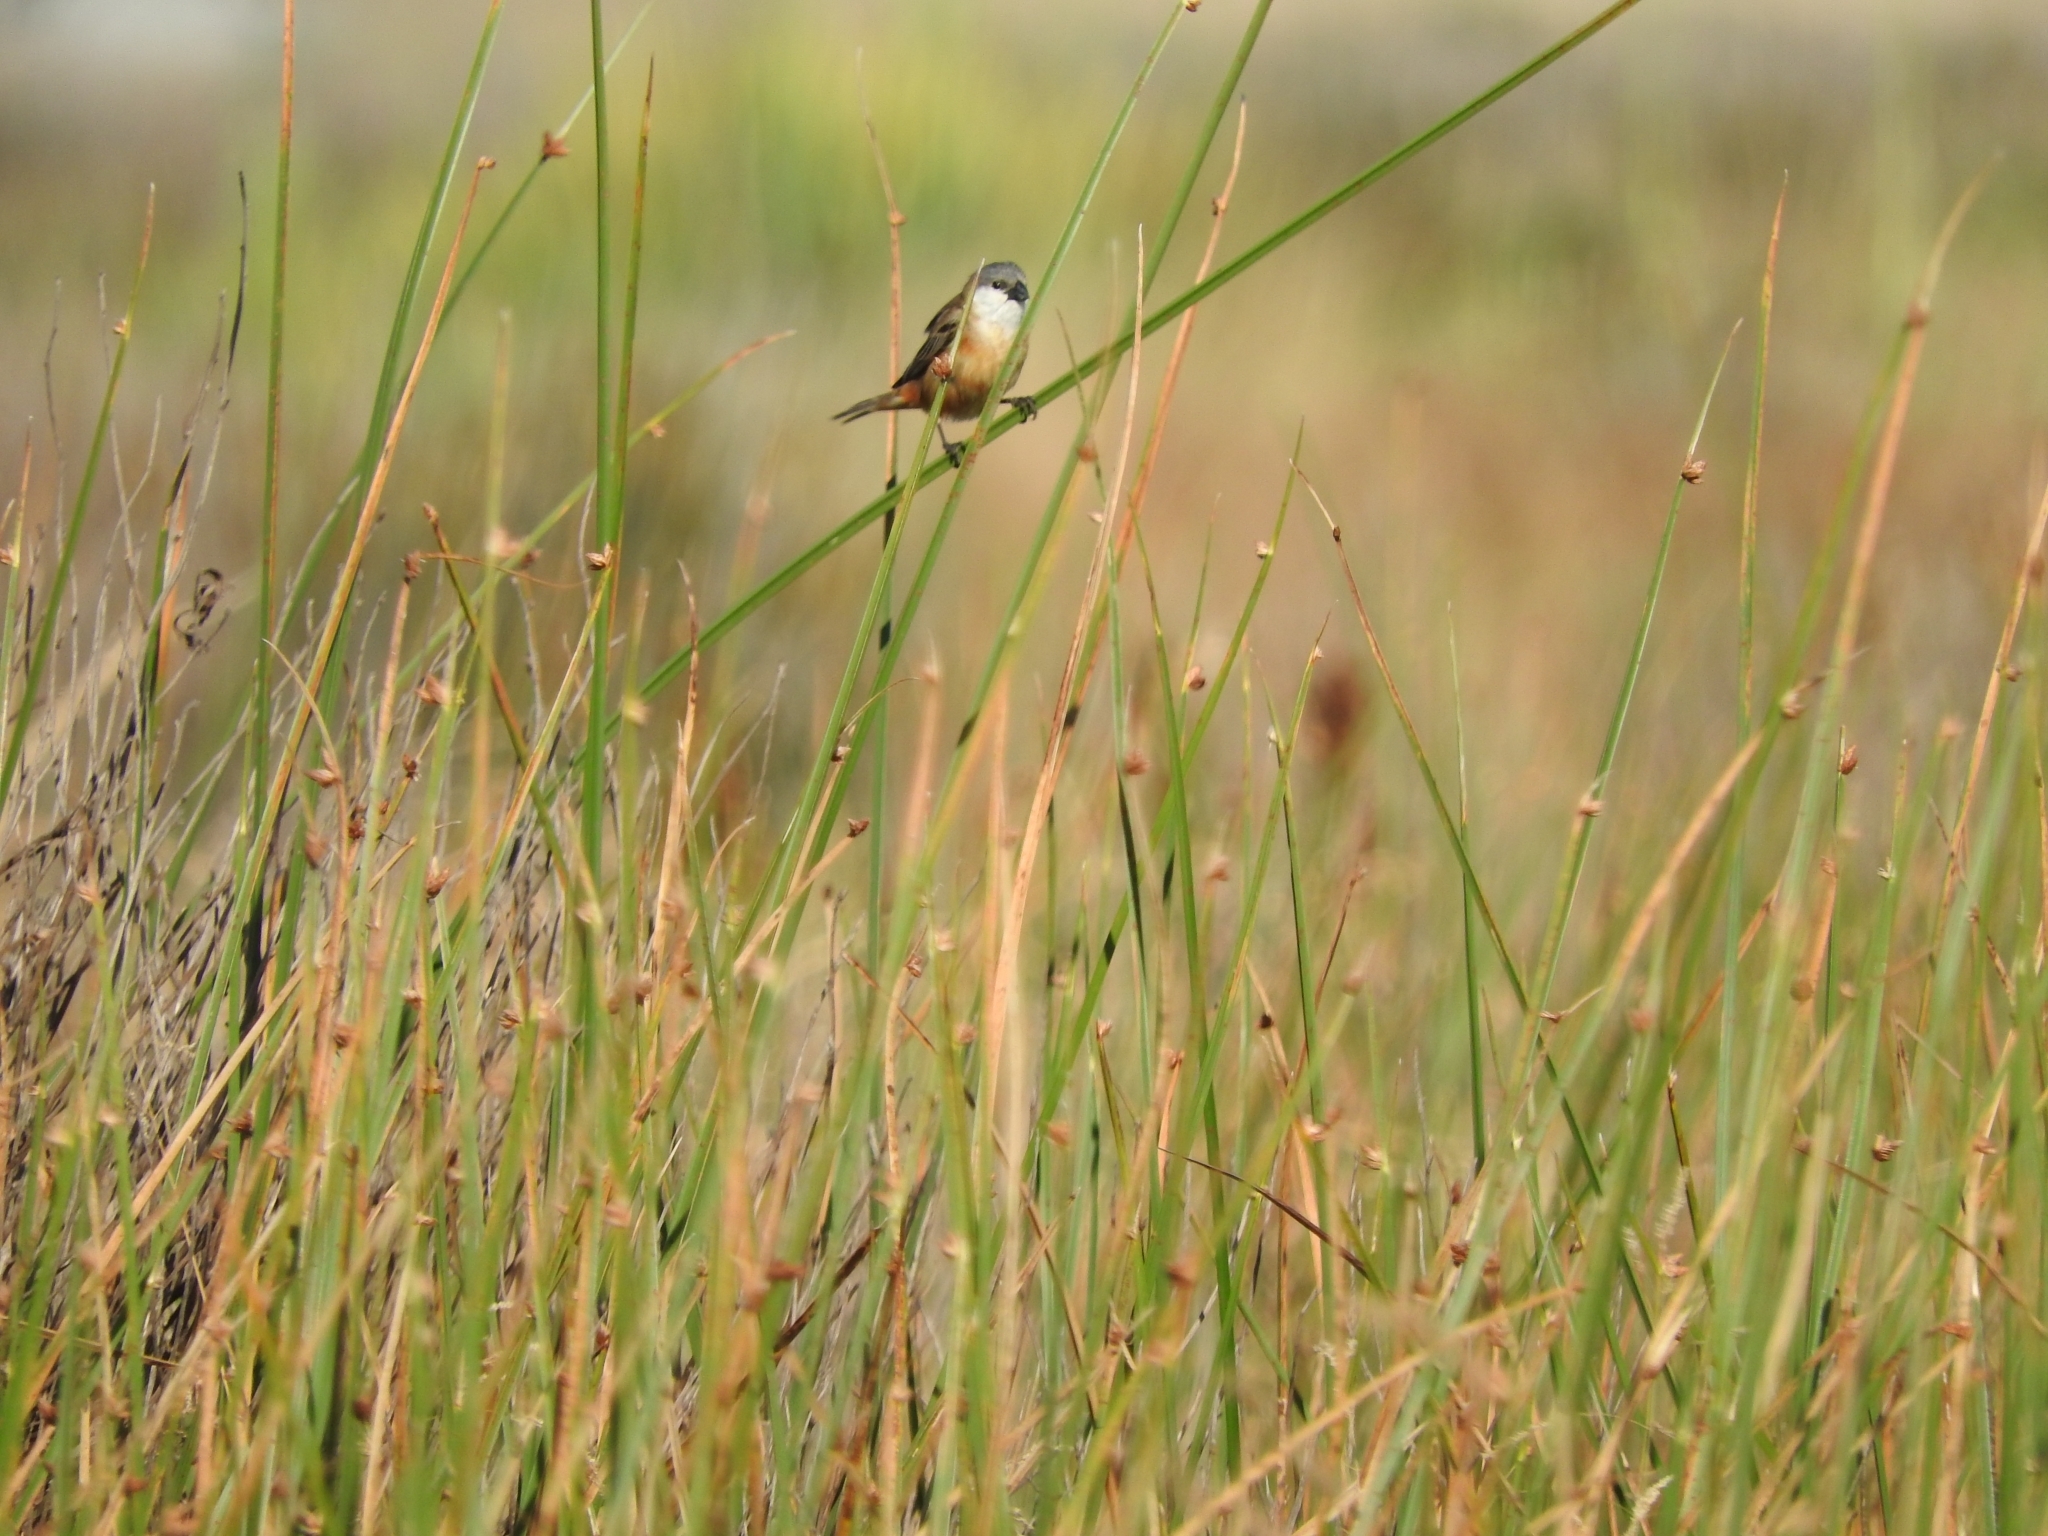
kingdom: Animalia
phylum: Chordata
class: Aves
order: Passeriformes
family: Thraupidae
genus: Sporophila
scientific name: Sporophila palustris
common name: Marsh seedeater
